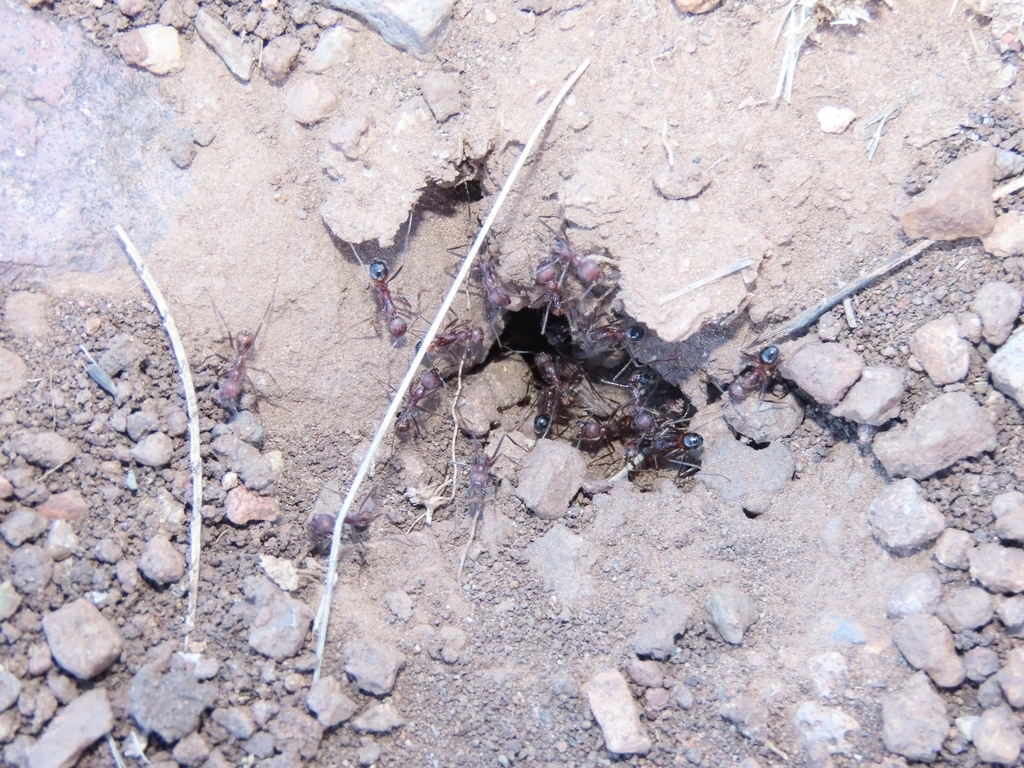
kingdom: Animalia
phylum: Arthropoda
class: Insecta
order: Hymenoptera
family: Formicidae
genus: Novomessor
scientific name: Novomessor albisetosa
